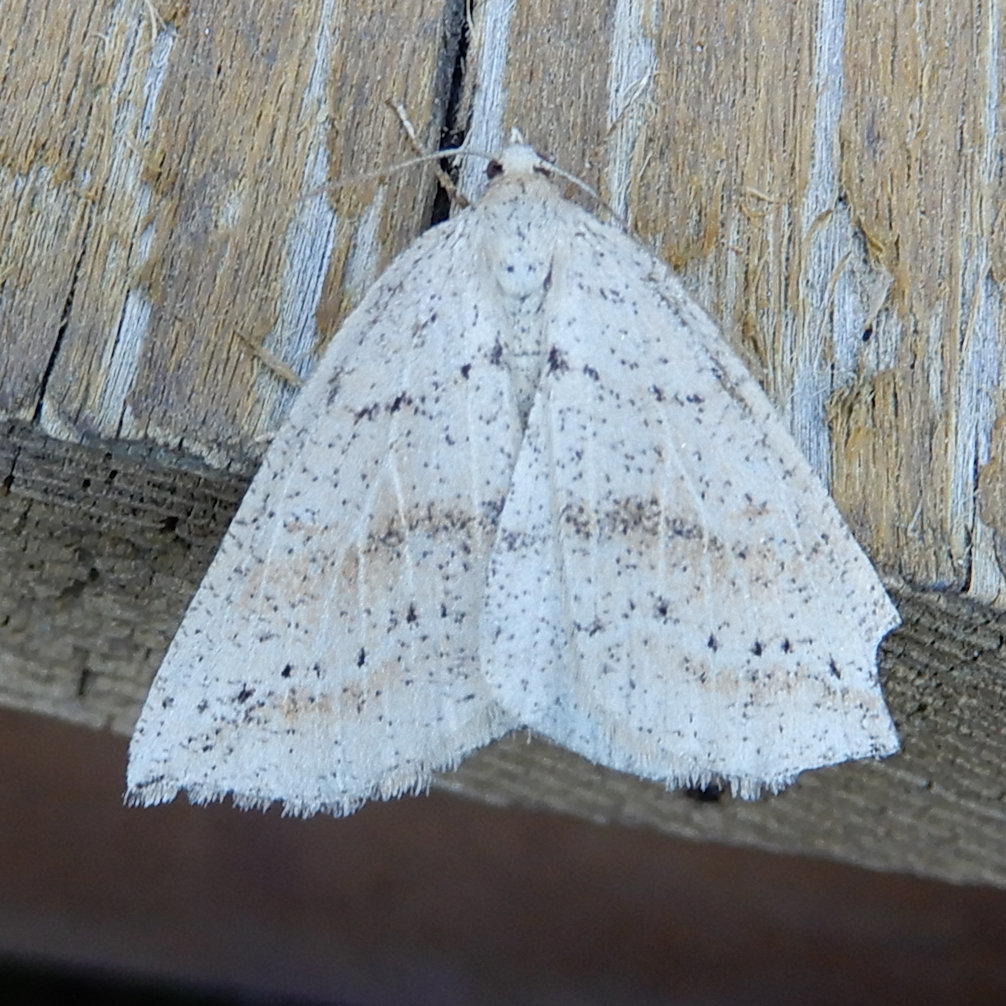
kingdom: Animalia
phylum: Arthropoda
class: Insecta
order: Lepidoptera
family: Geometridae
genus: Thallophaga
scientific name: Thallophaga hyperborea
